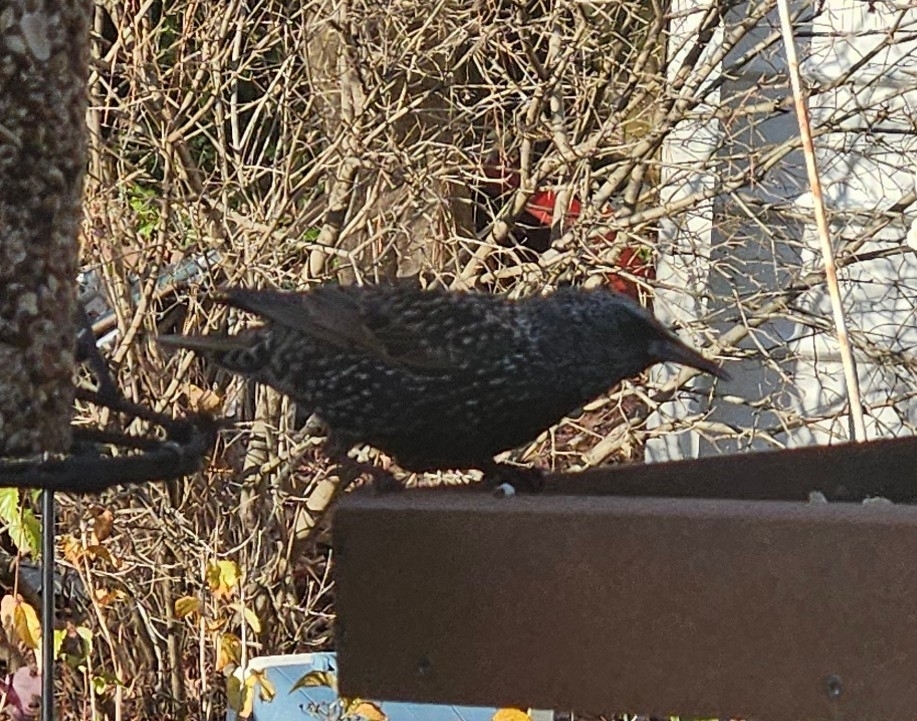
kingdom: Animalia
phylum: Chordata
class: Aves
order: Passeriformes
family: Sturnidae
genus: Sturnus
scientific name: Sturnus vulgaris
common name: Common starling
